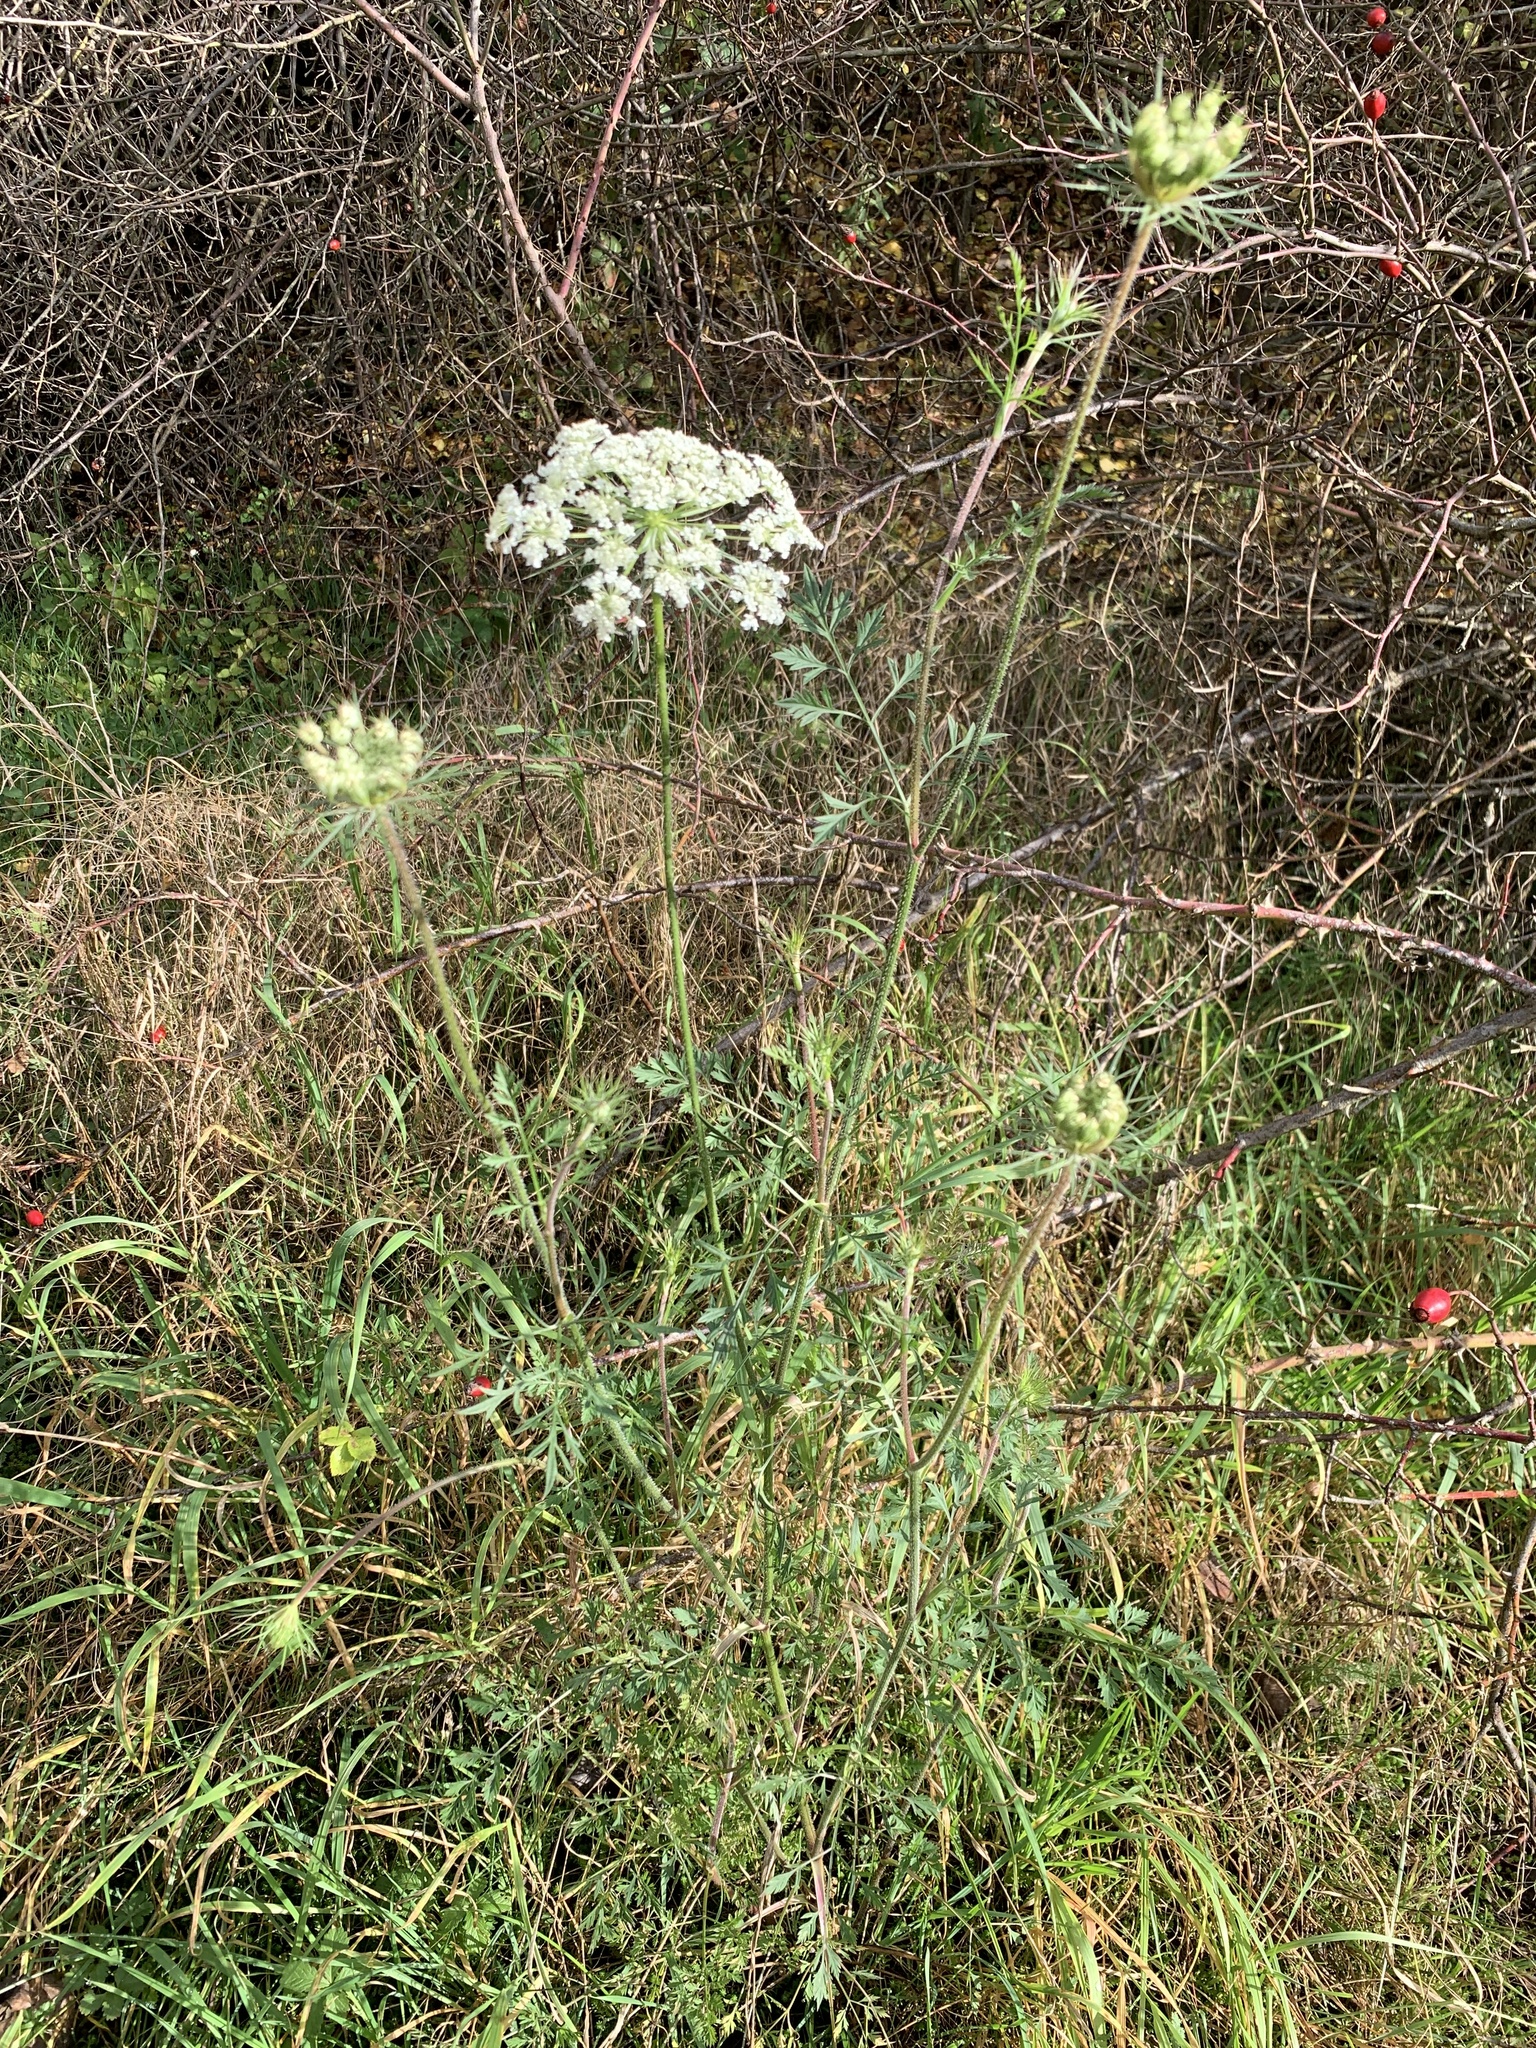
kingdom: Plantae
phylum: Tracheophyta
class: Magnoliopsida
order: Apiales
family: Apiaceae
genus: Daucus
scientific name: Daucus carota
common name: Wild carrot
